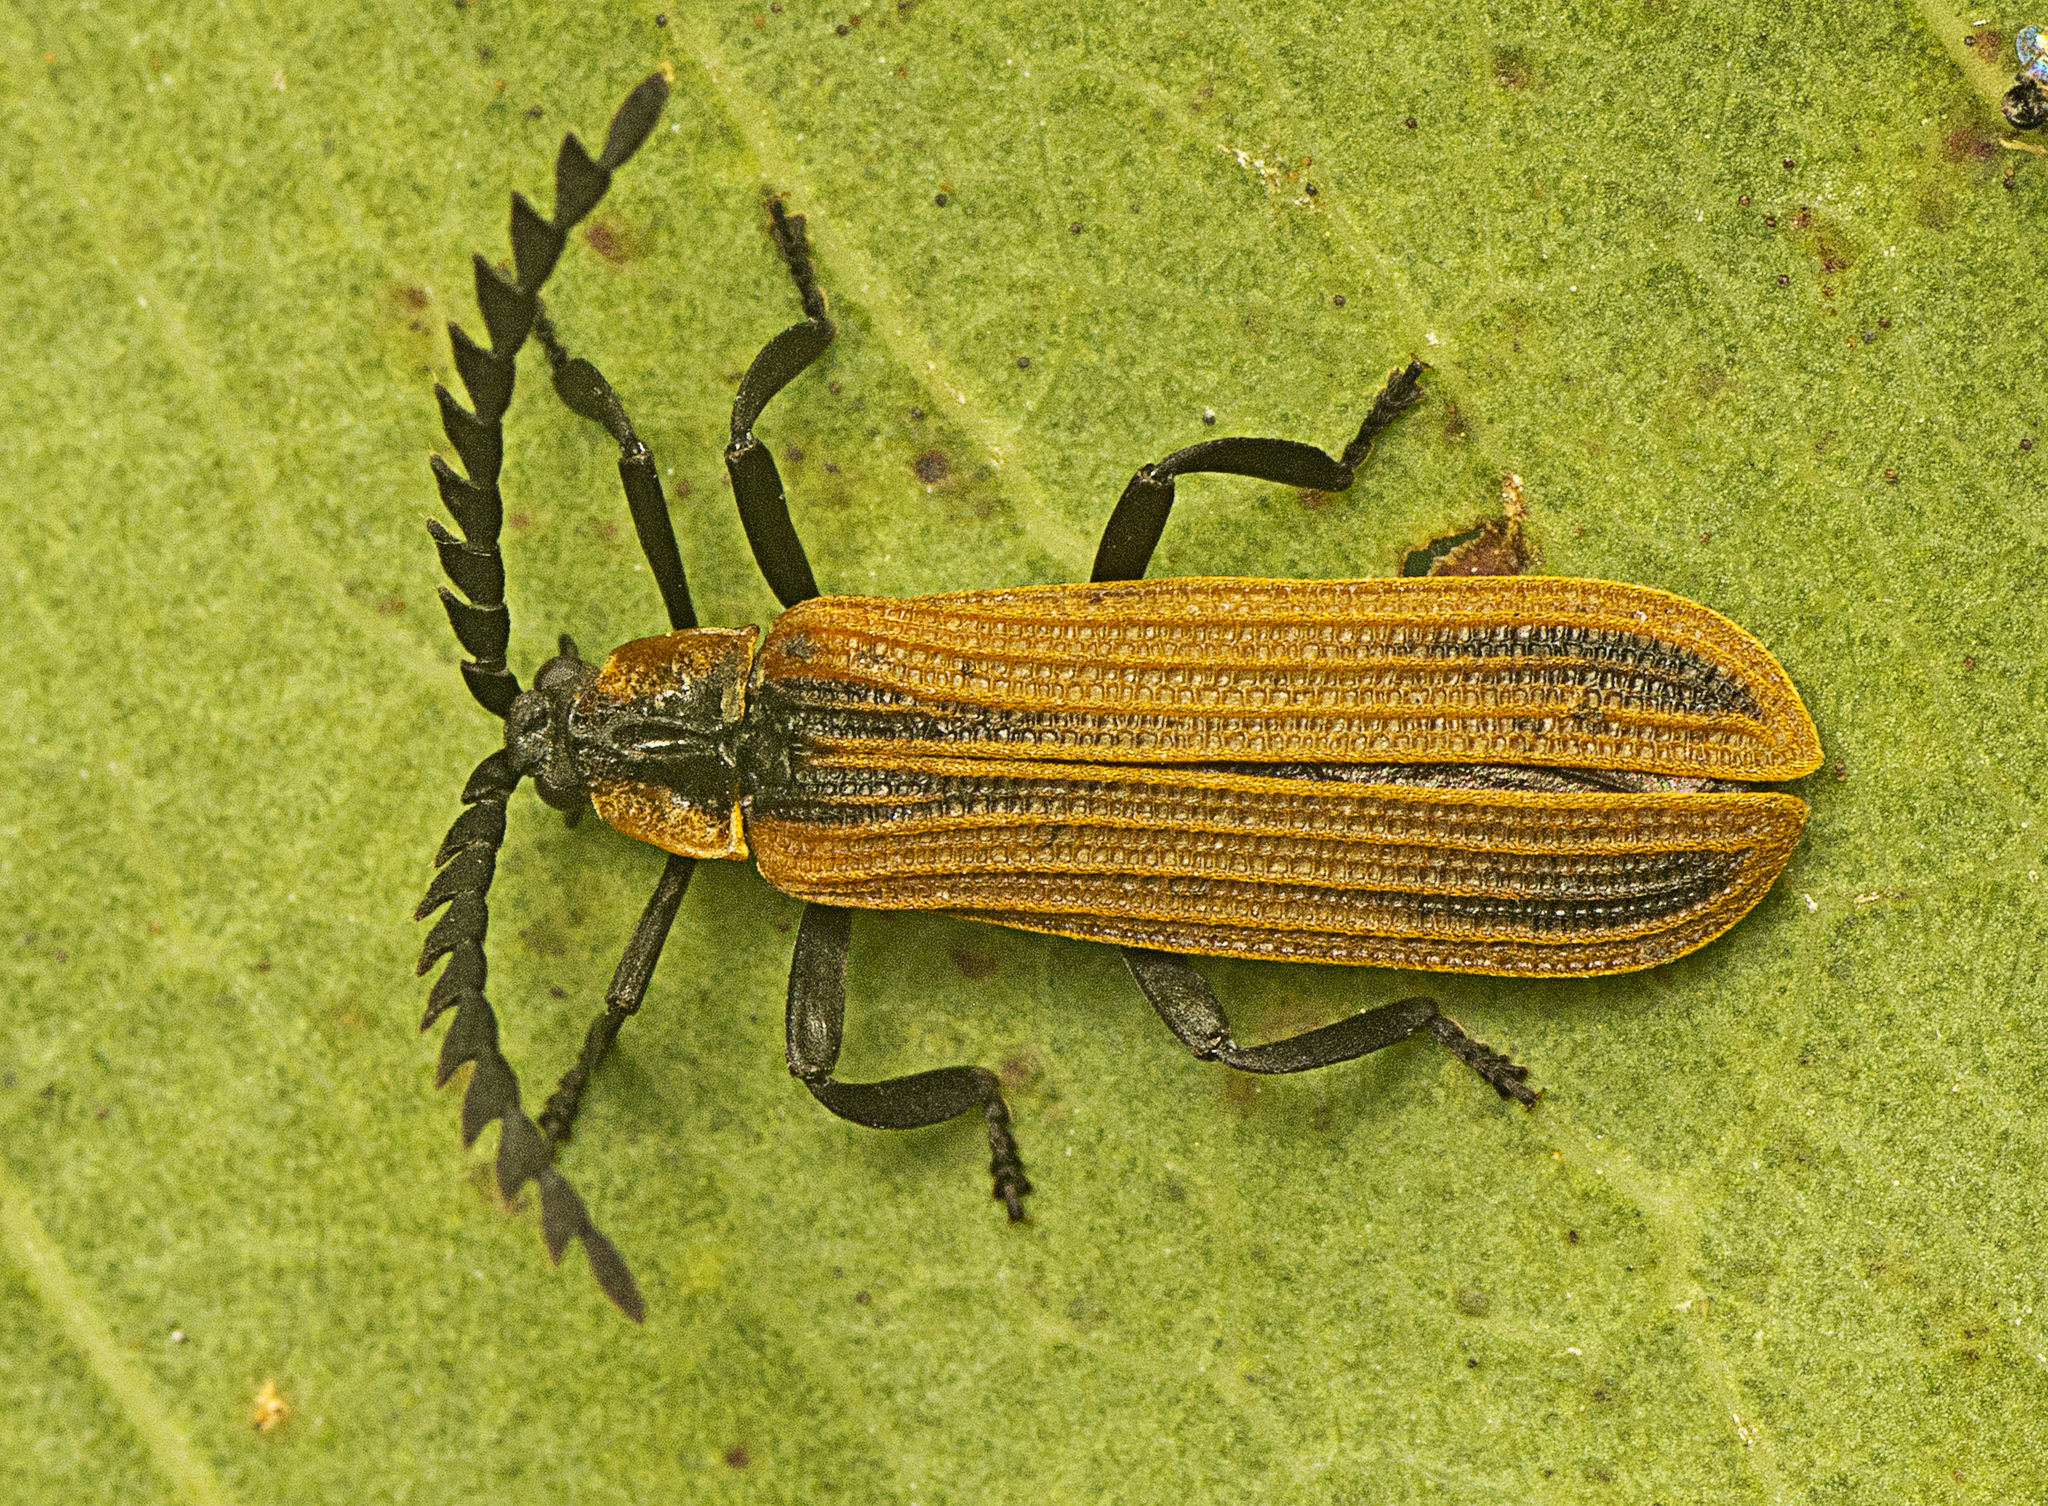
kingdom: Animalia
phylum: Arthropoda
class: Insecta
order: Coleoptera
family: Lycidae
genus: Trichalus
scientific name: Trichalus
